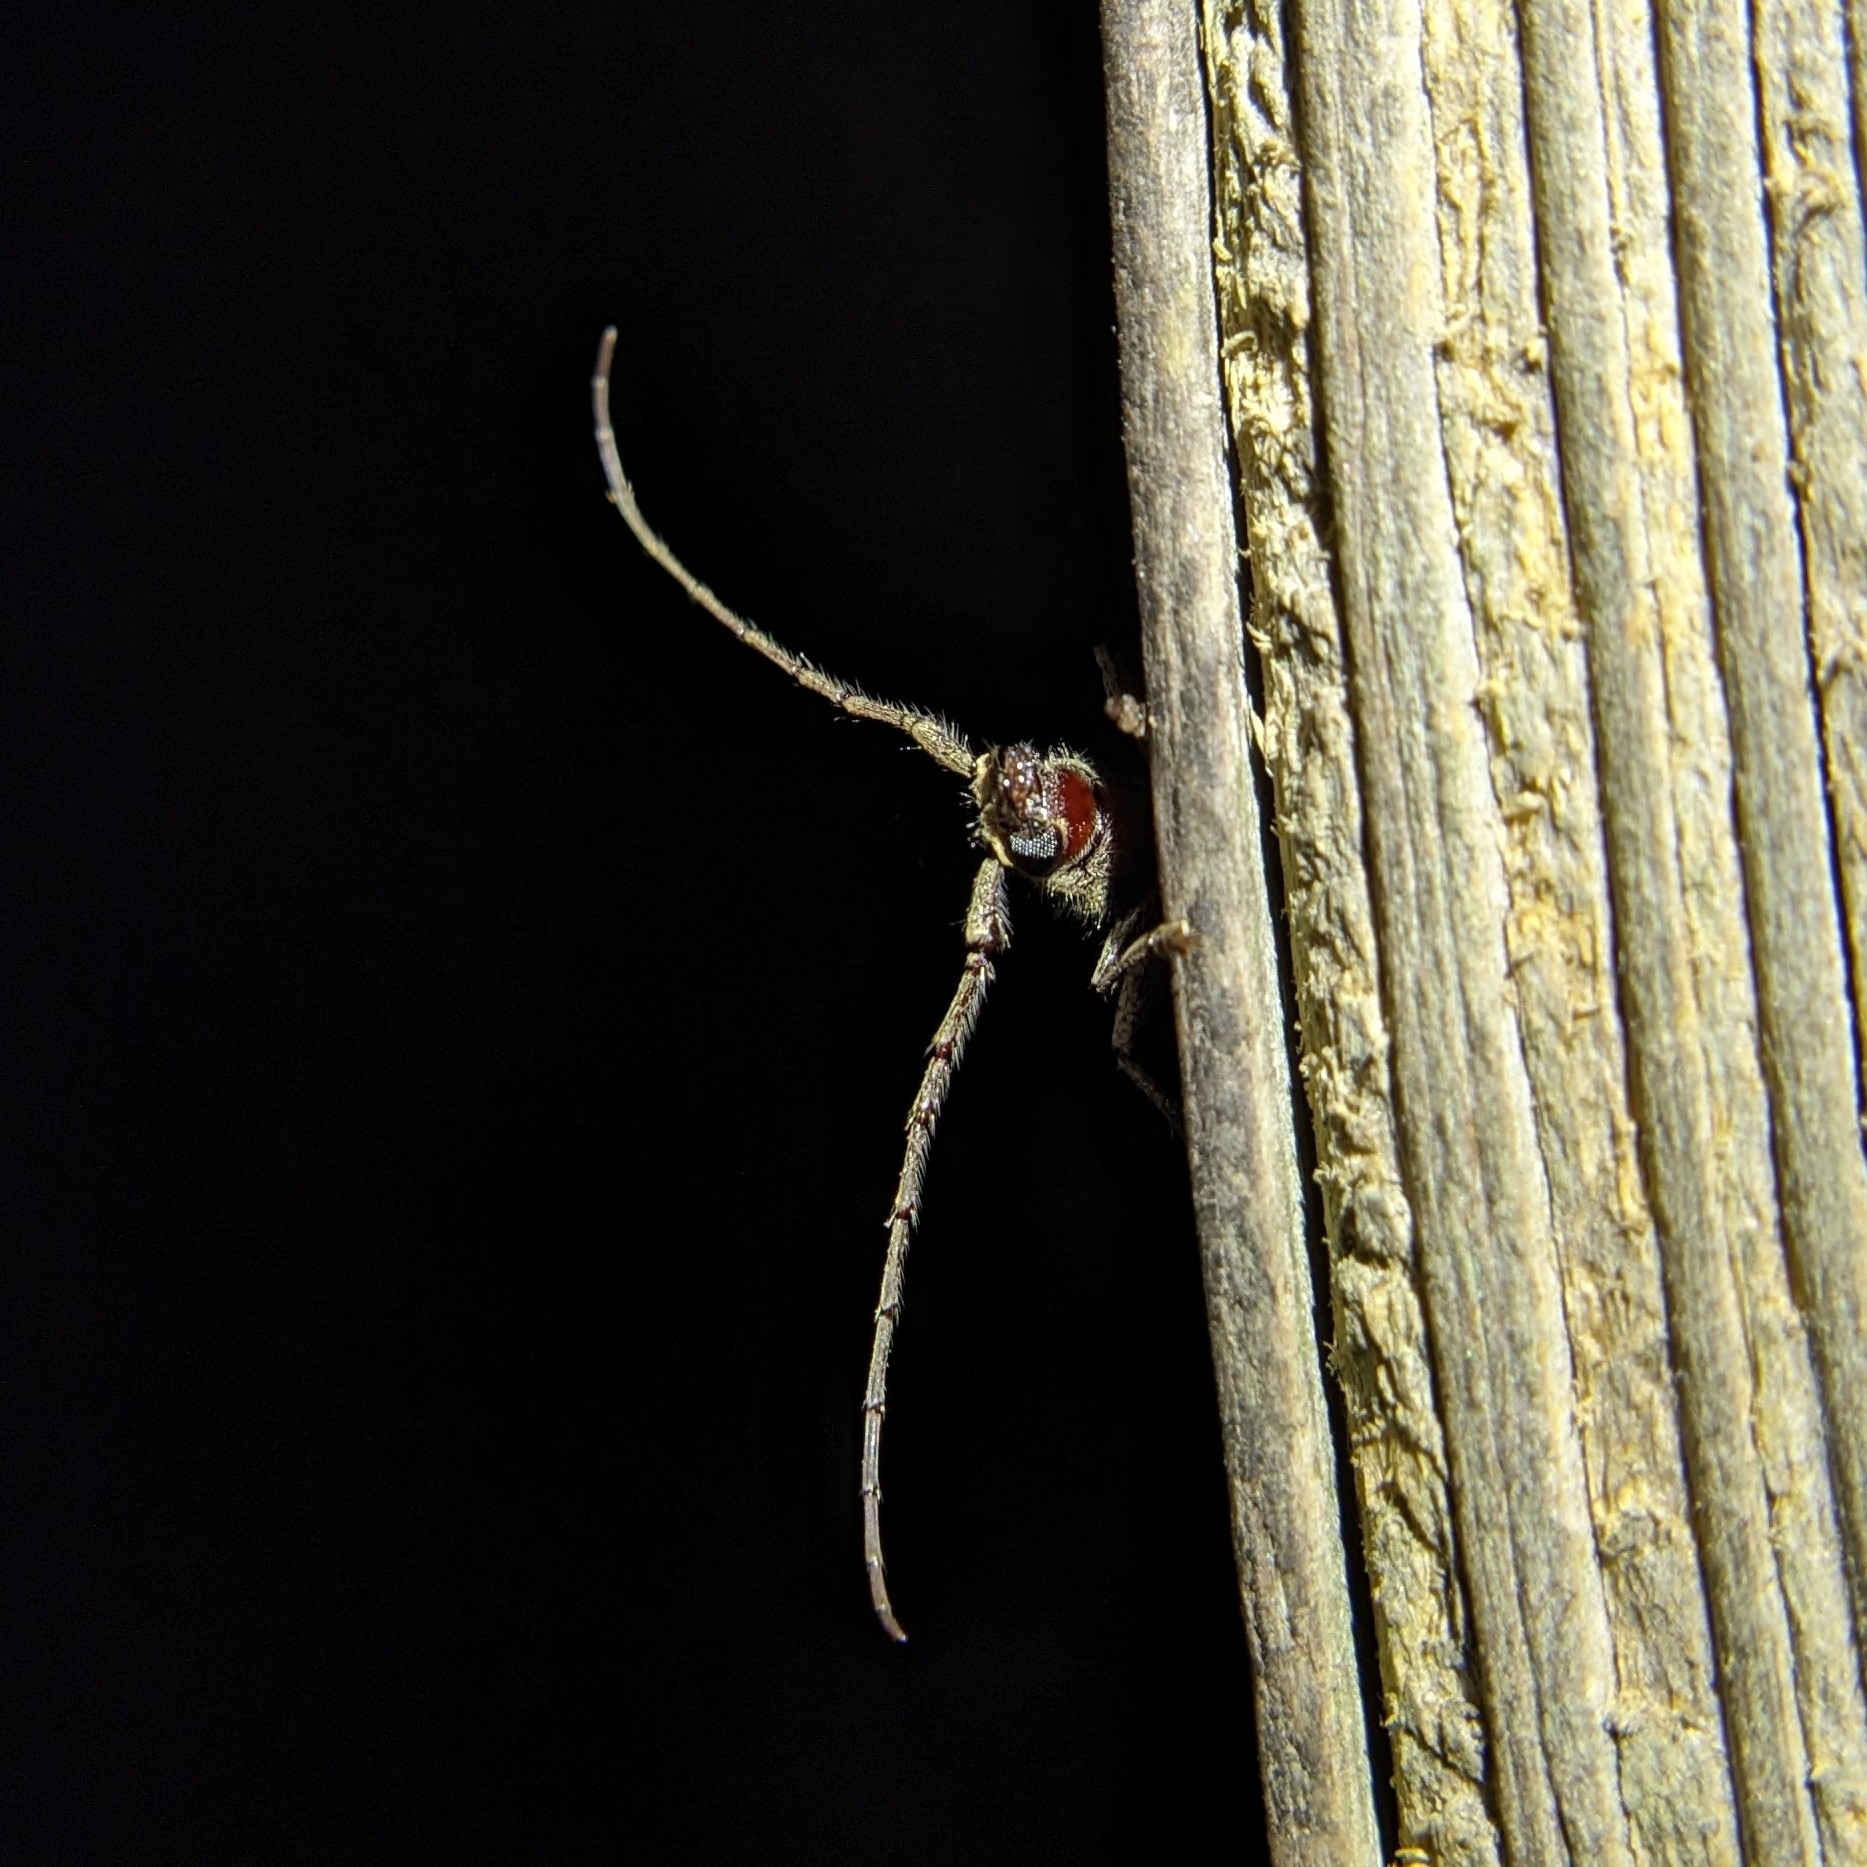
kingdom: Animalia
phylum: Arthropoda
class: Insecta
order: Coleoptera
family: Cerambycidae
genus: Elaphidion
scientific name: Elaphidion mucronatum
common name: Spined oak borer
